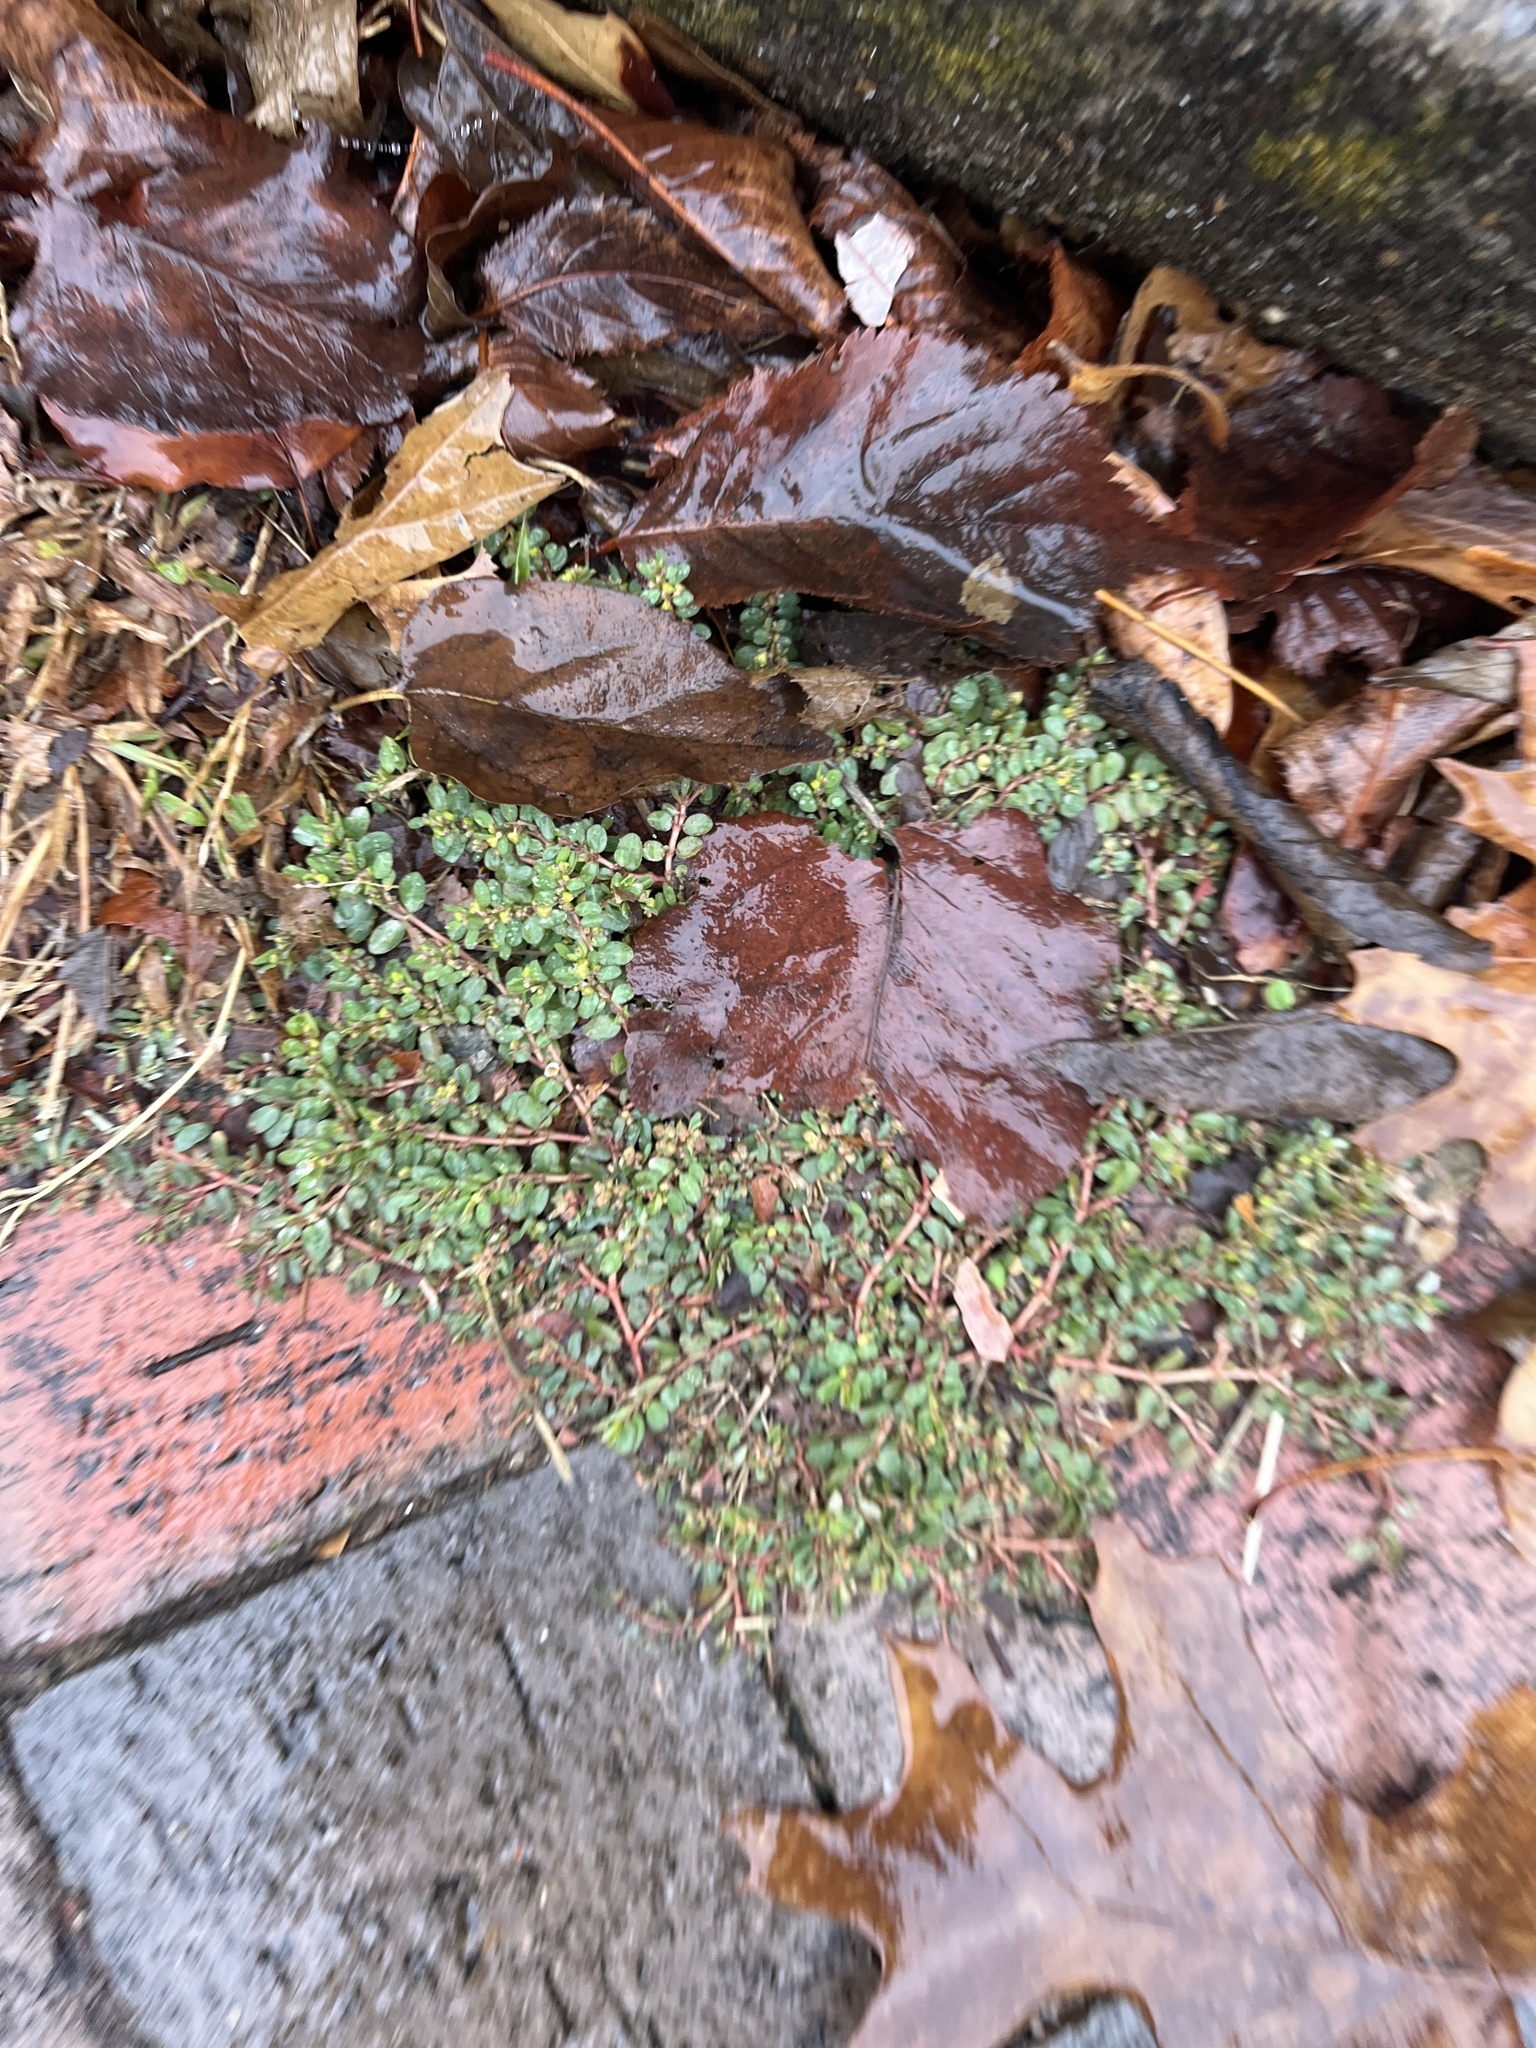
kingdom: Plantae
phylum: Tracheophyta
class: Magnoliopsida
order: Malpighiales
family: Euphorbiaceae
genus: Euphorbia
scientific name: Euphorbia prostrata
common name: Prostrate sandmat
